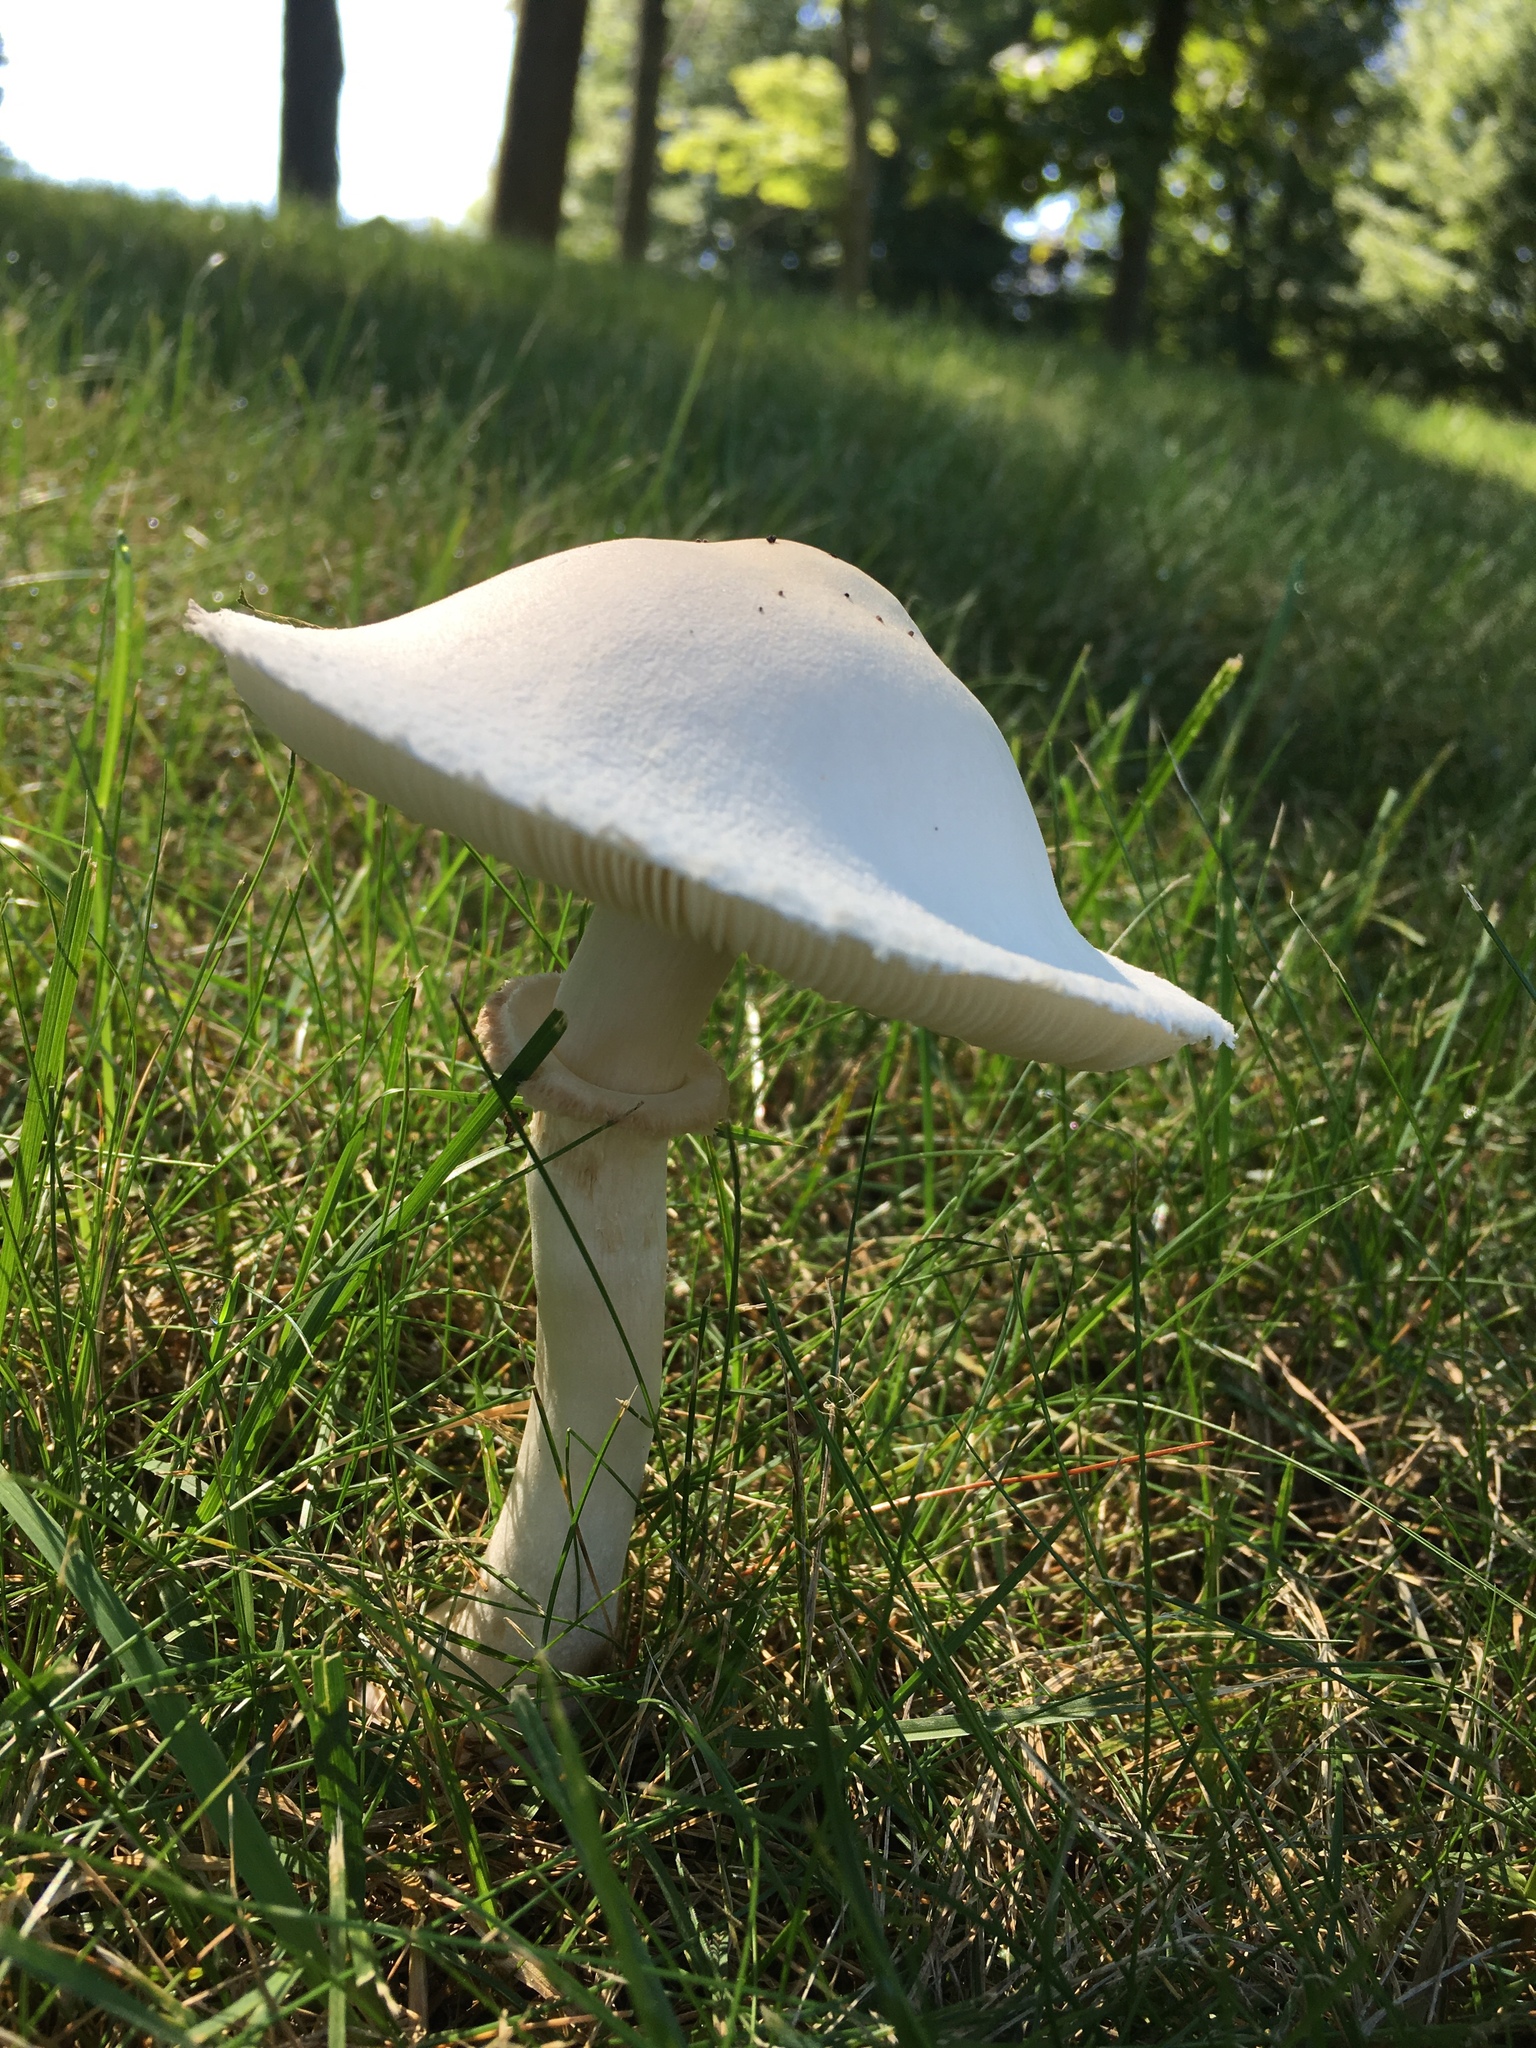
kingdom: Fungi
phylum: Basidiomycota
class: Agaricomycetes
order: Agaricales
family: Agaricaceae
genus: Leucoagaricus
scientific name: Leucoagaricus leucothites
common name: White dapperling
